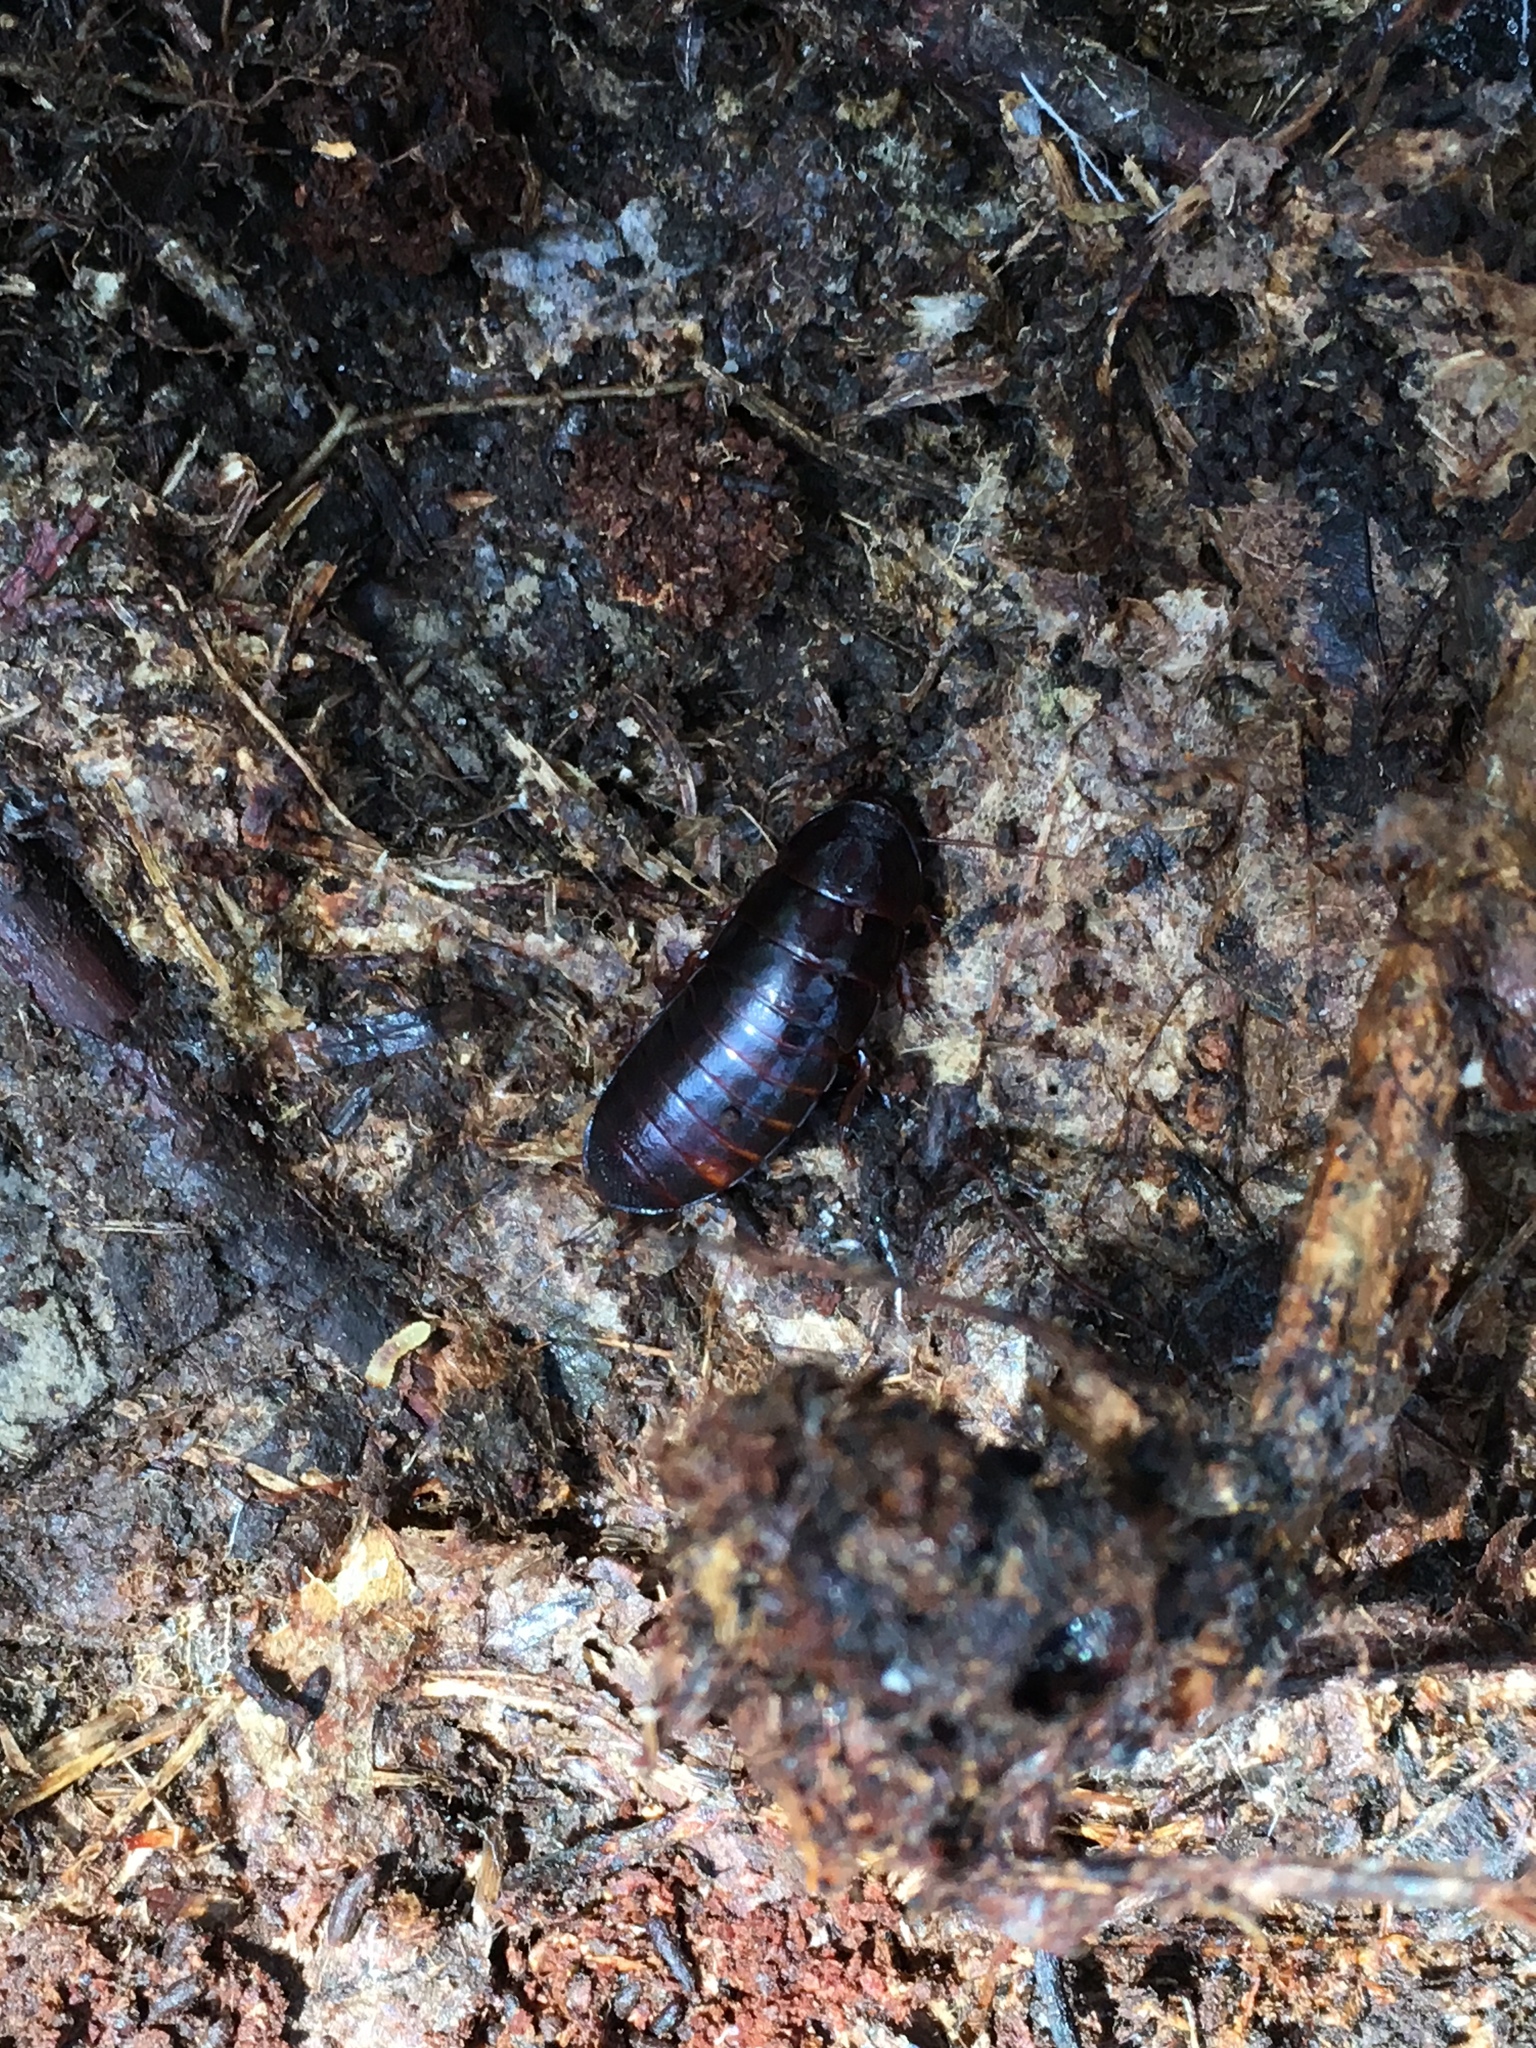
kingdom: Animalia
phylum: Arthropoda
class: Insecta
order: Blattodea
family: Cryptocercidae
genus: Cryptocercus
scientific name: Cryptocercus punctulatus
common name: Brown wingless cockroach
